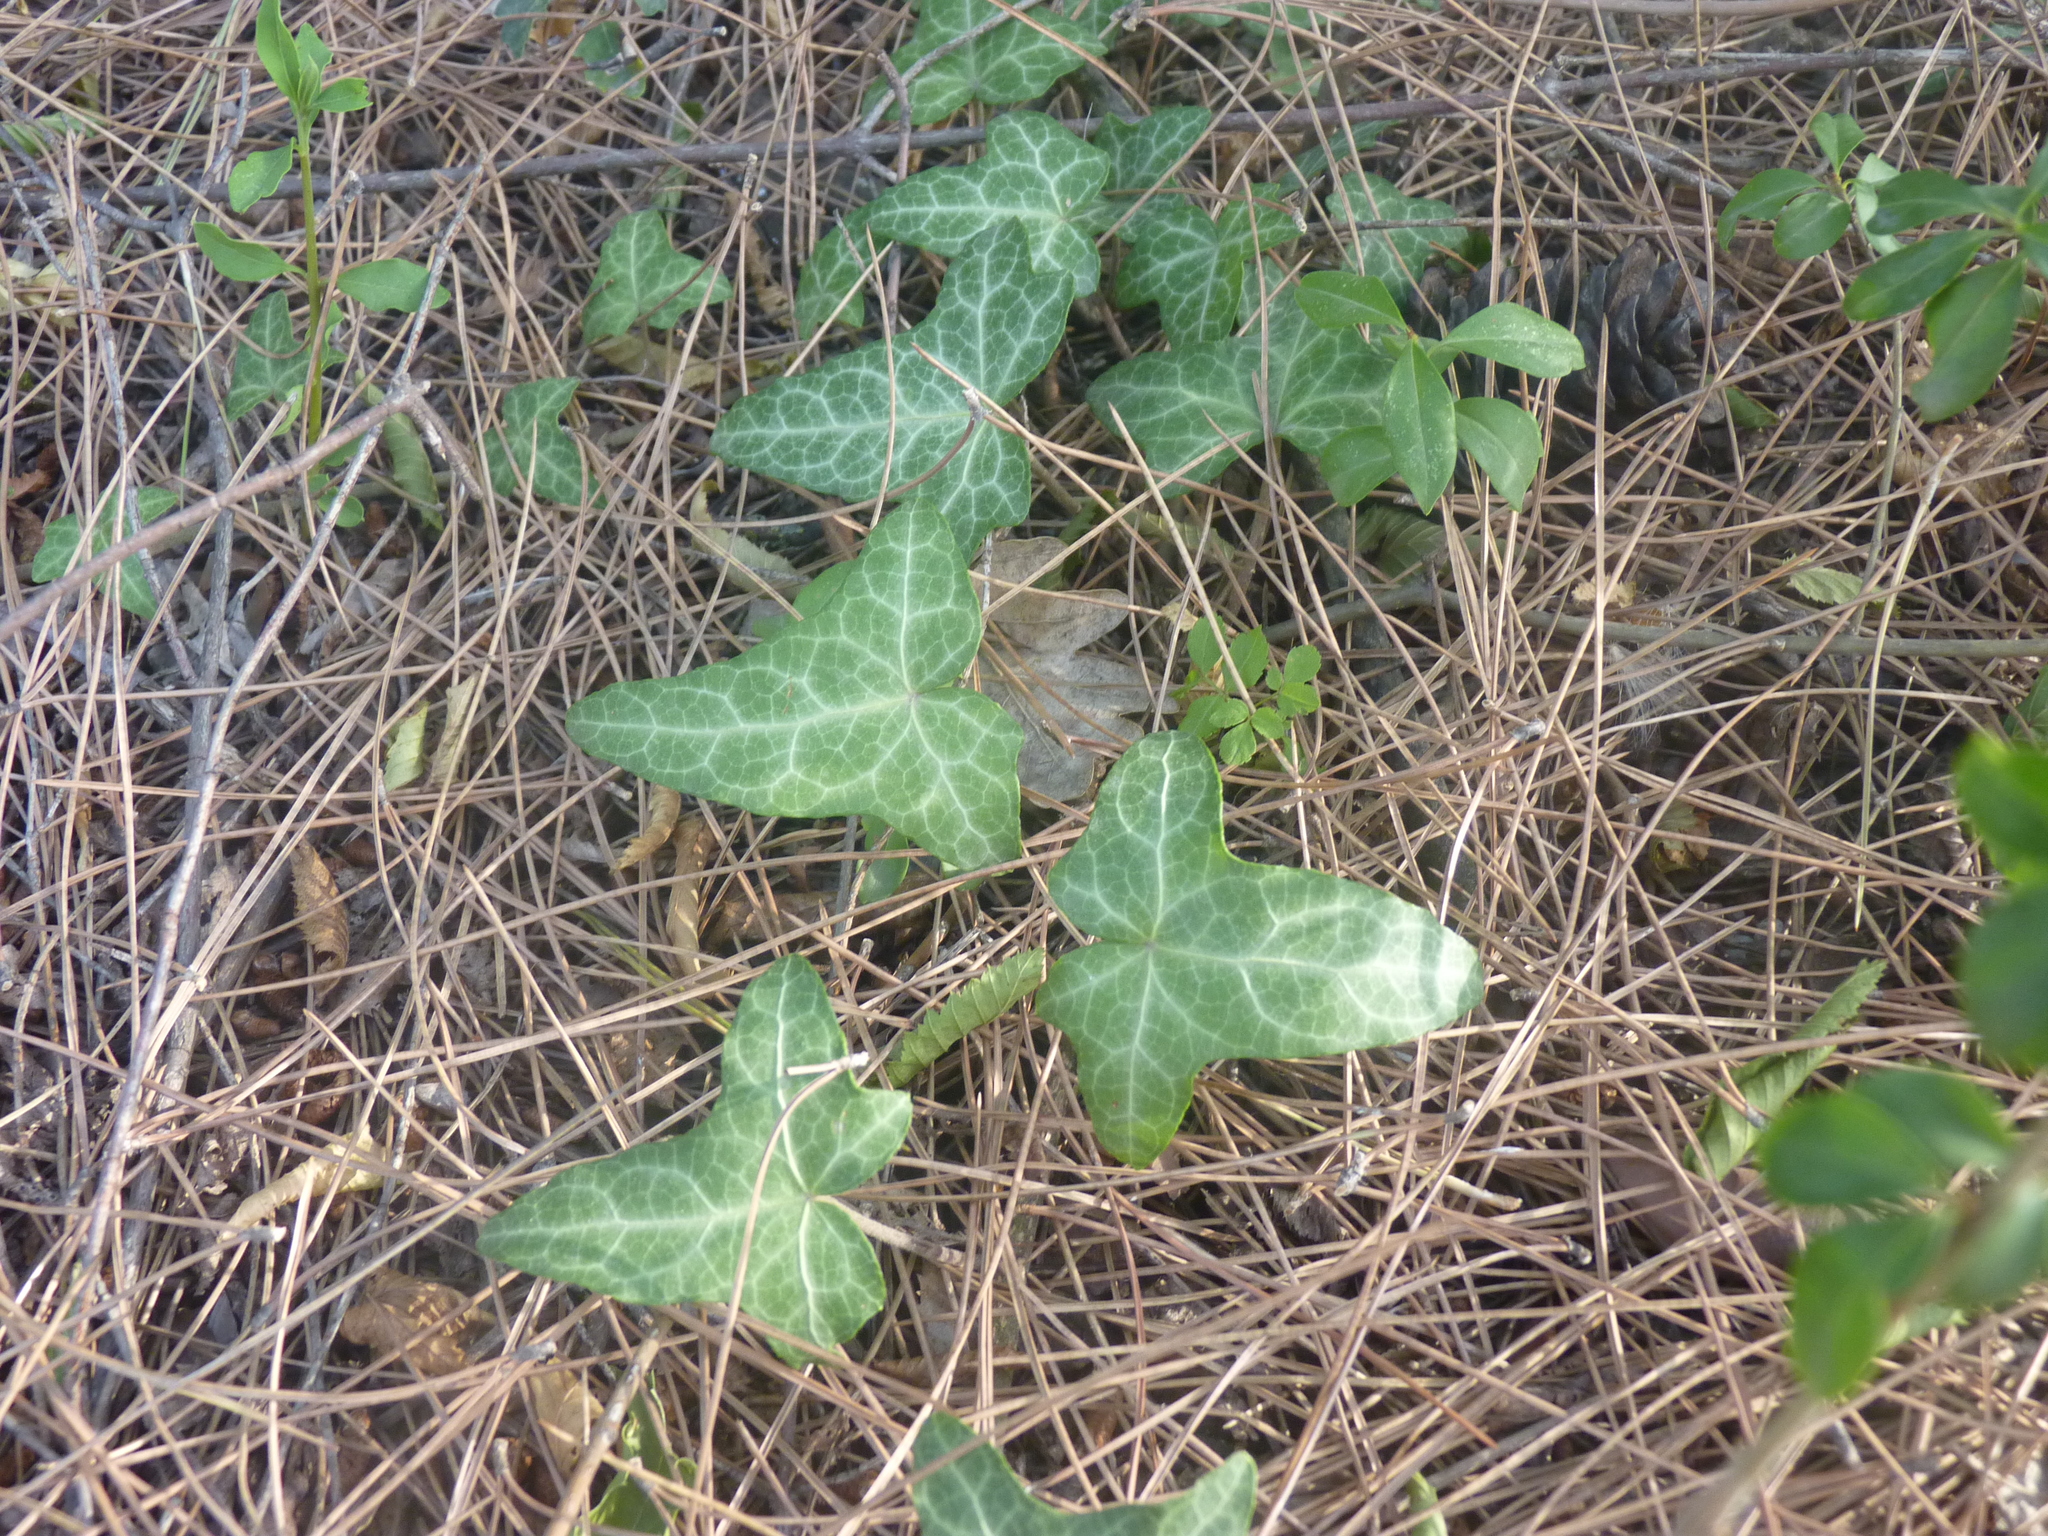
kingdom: Plantae
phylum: Tracheophyta
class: Magnoliopsida
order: Apiales
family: Araliaceae
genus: Hedera
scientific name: Hedera helix
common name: Ivy
